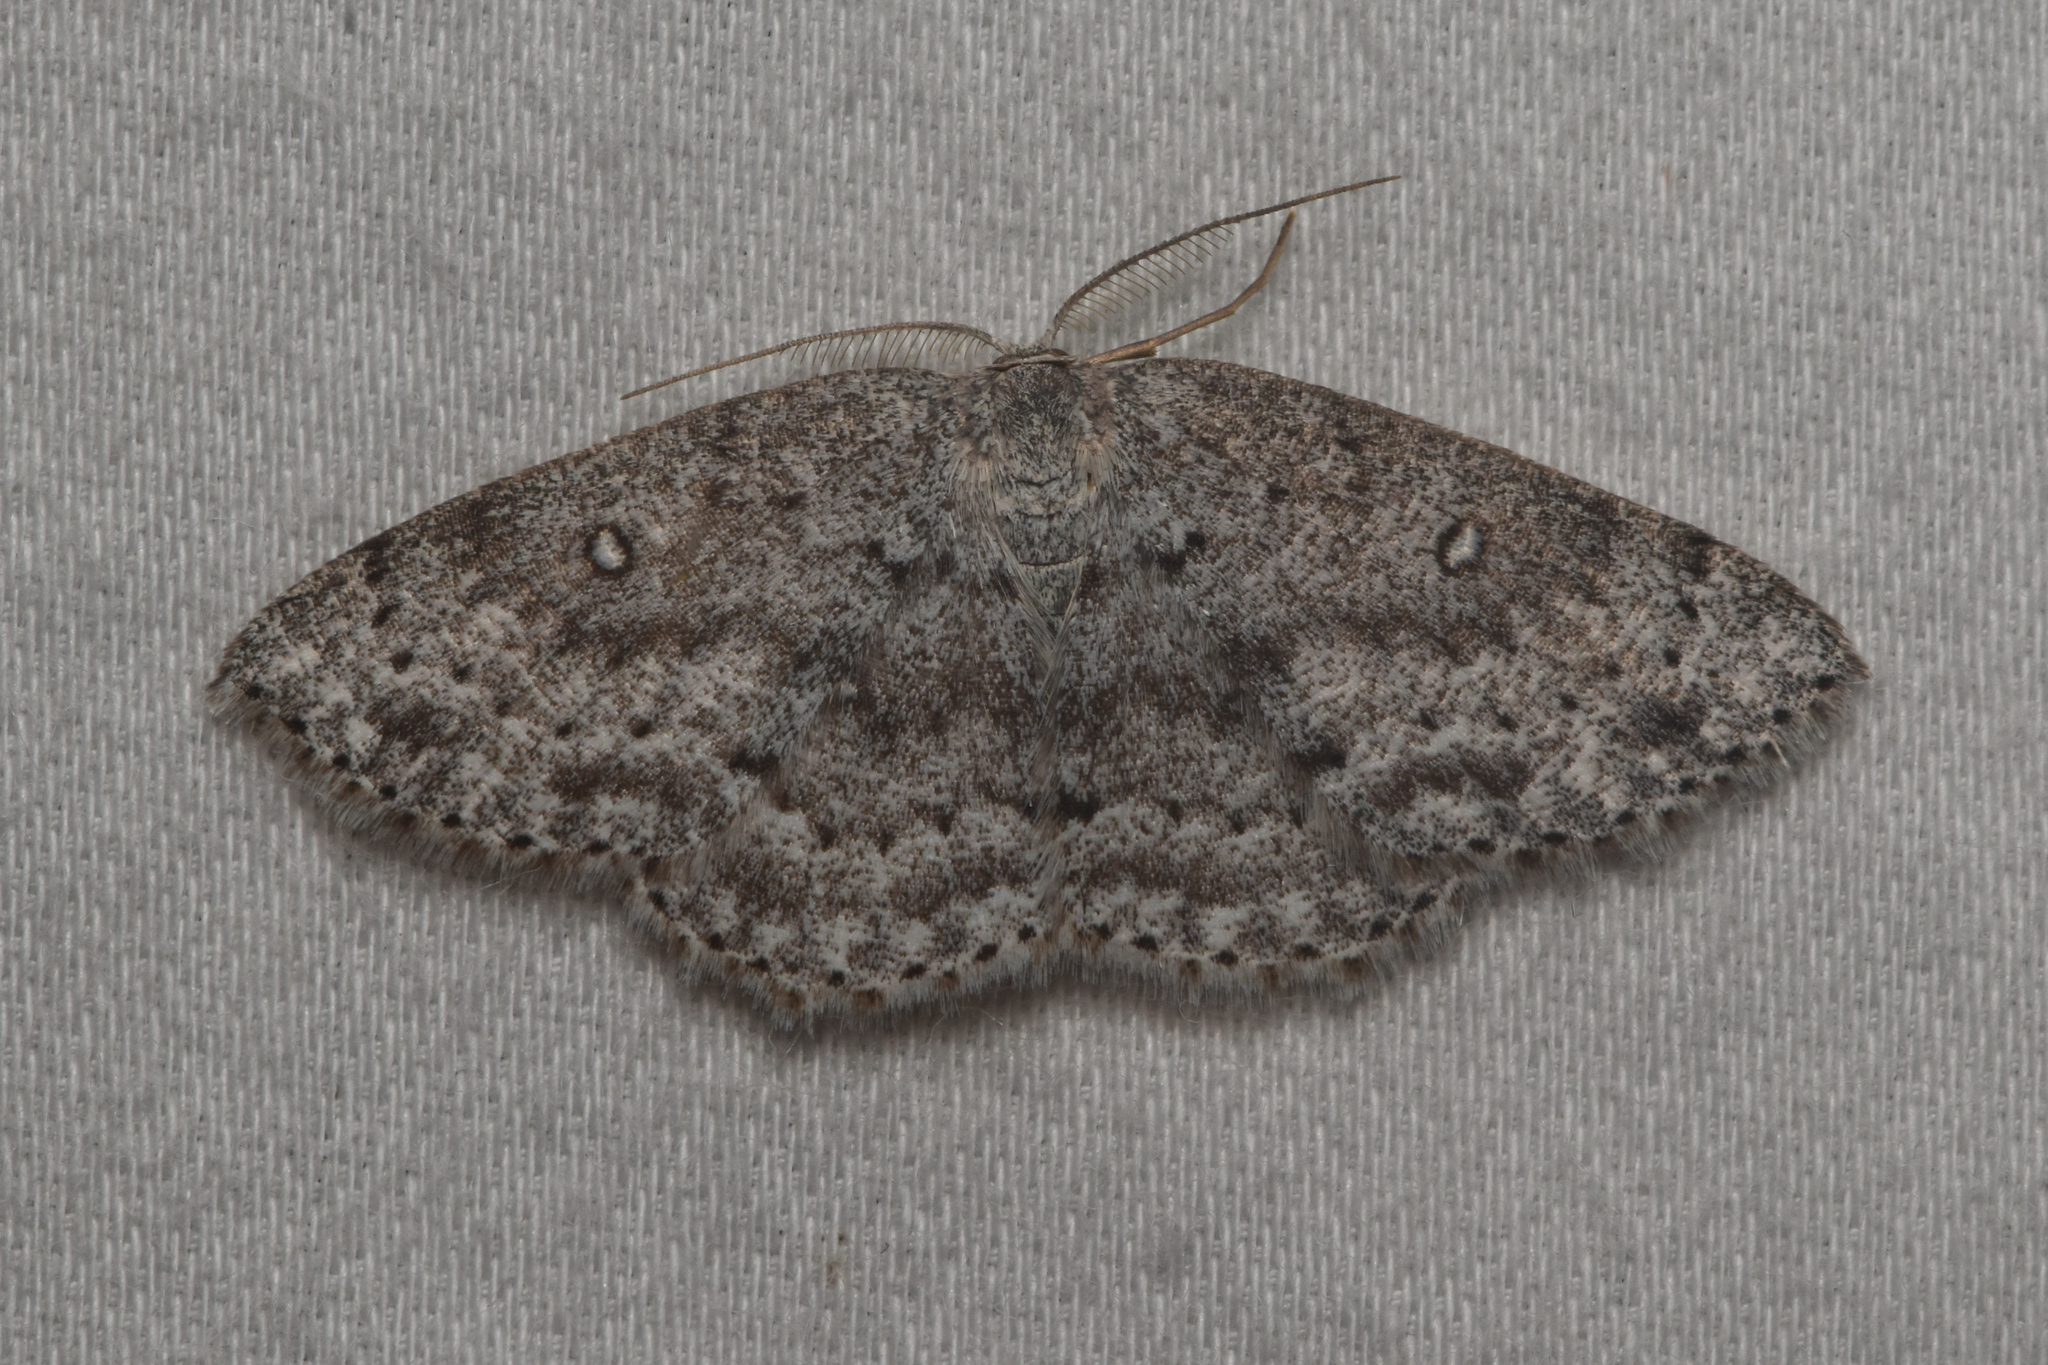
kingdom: Animalia
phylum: Arthropoda
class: Insecta
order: Lepidoptera
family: Geometridae
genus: Cyclophora
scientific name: Cyclophora pendulinaria
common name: Sweet fern geometer
